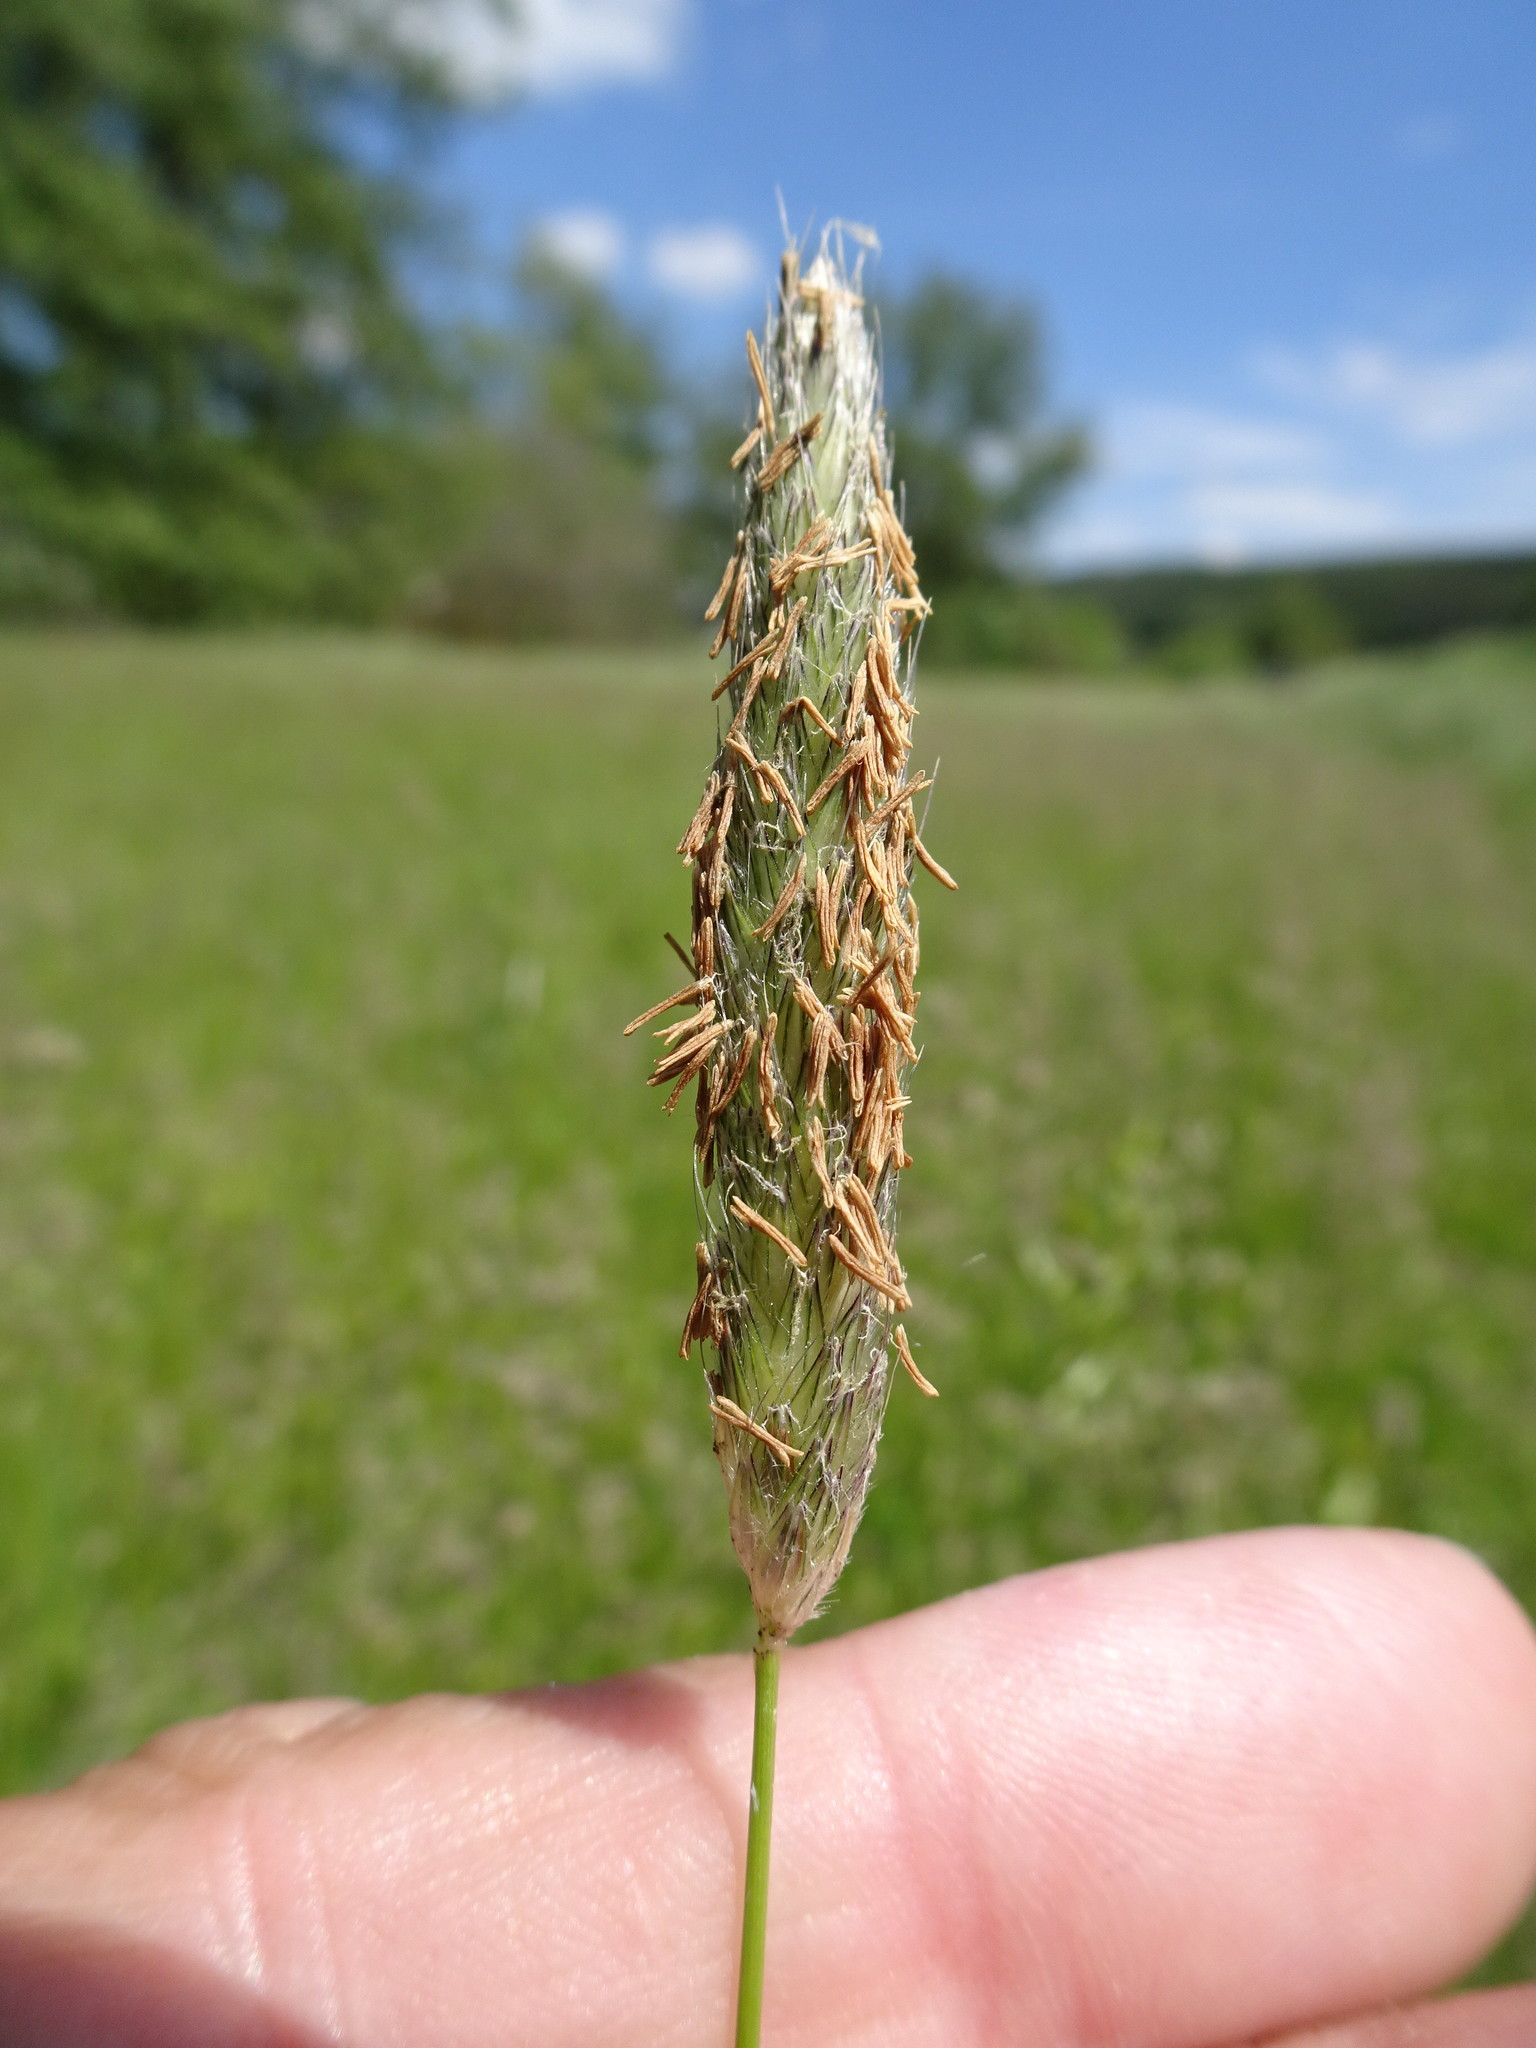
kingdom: Plantae
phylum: Tracheophyta
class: Liliopsida
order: Poales
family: Poaceae
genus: Alopecurus
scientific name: Alopecurus pratensis
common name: Meadow foxtail
